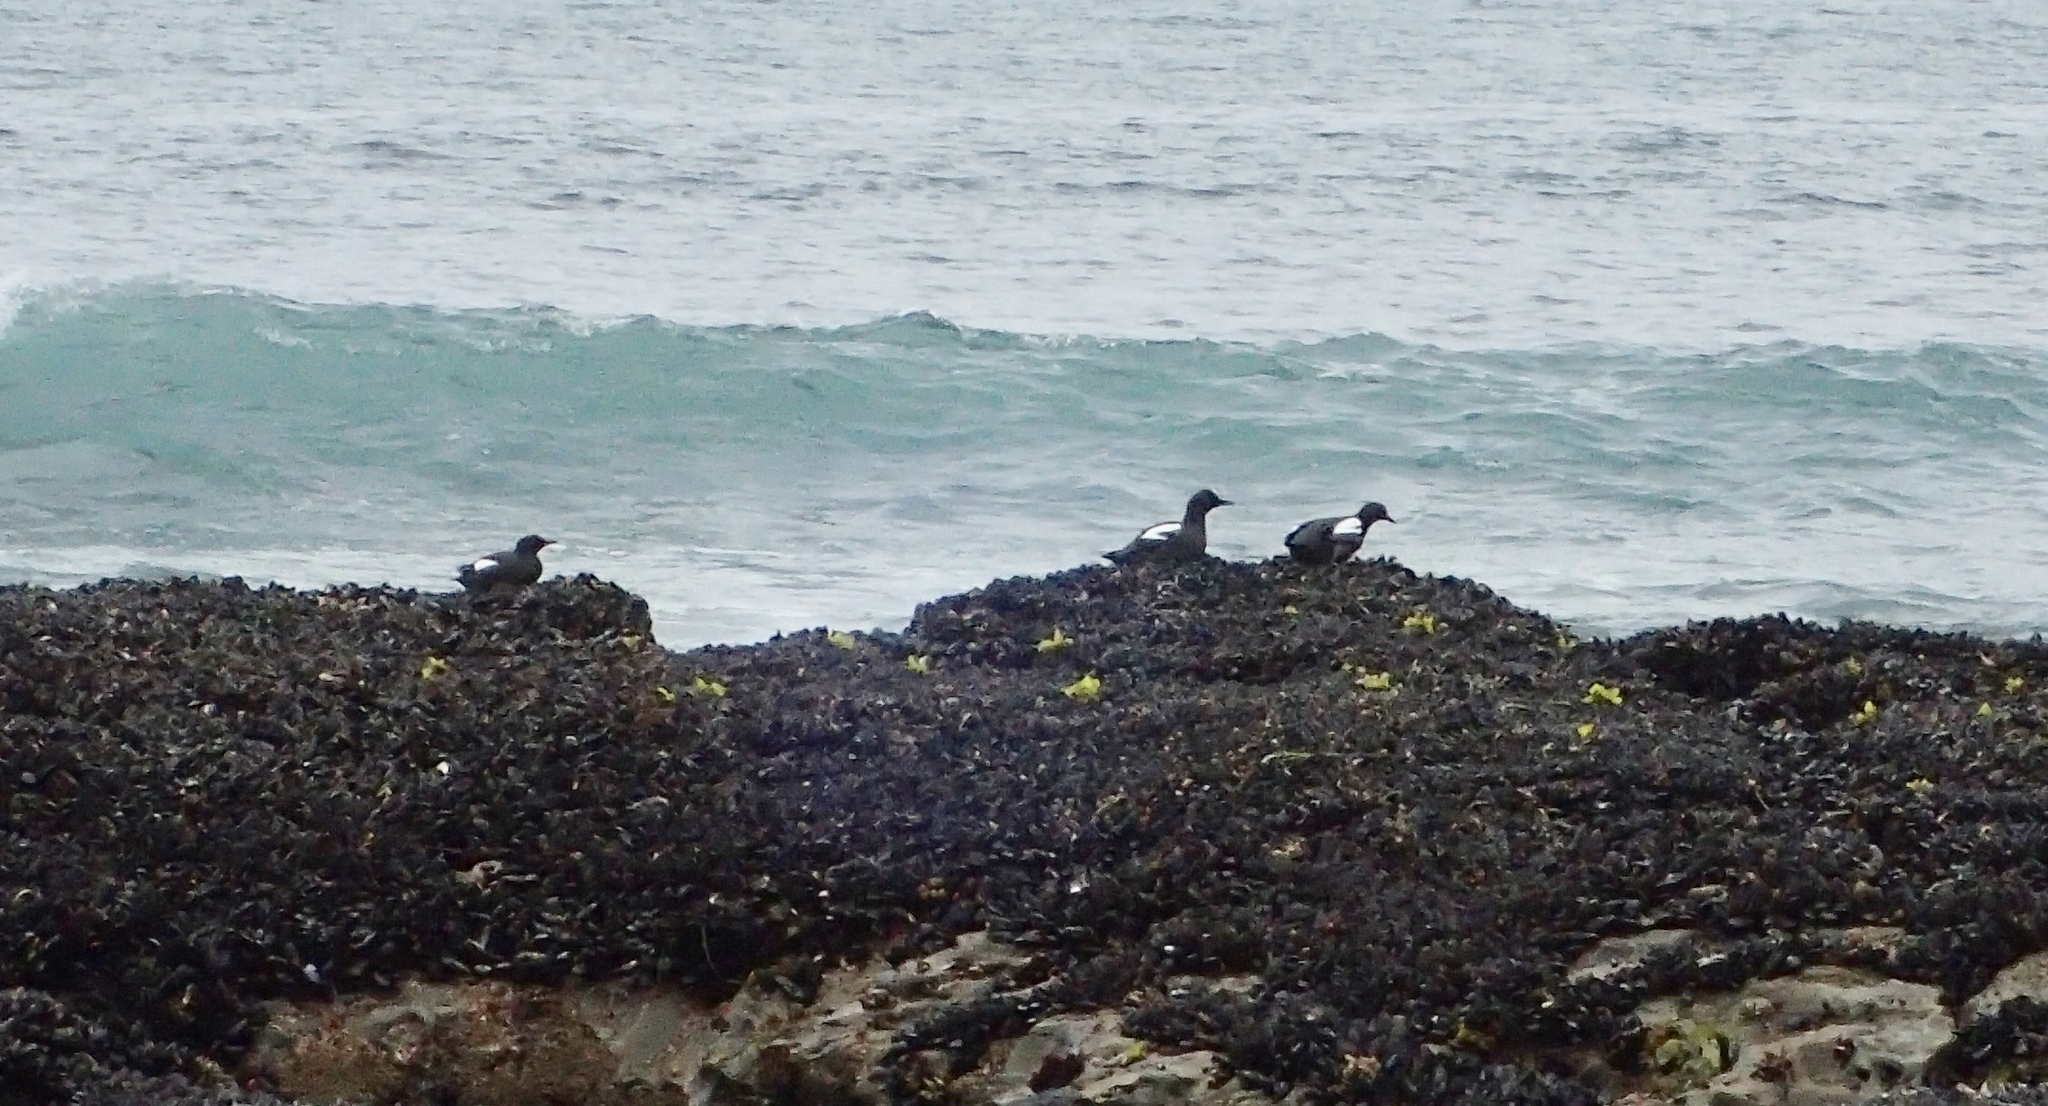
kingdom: Animalia
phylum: Chordata
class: Aves
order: Charadriiformes
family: Alcidae
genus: Cepphus
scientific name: Cepphus columba
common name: Pigeon guillemot
